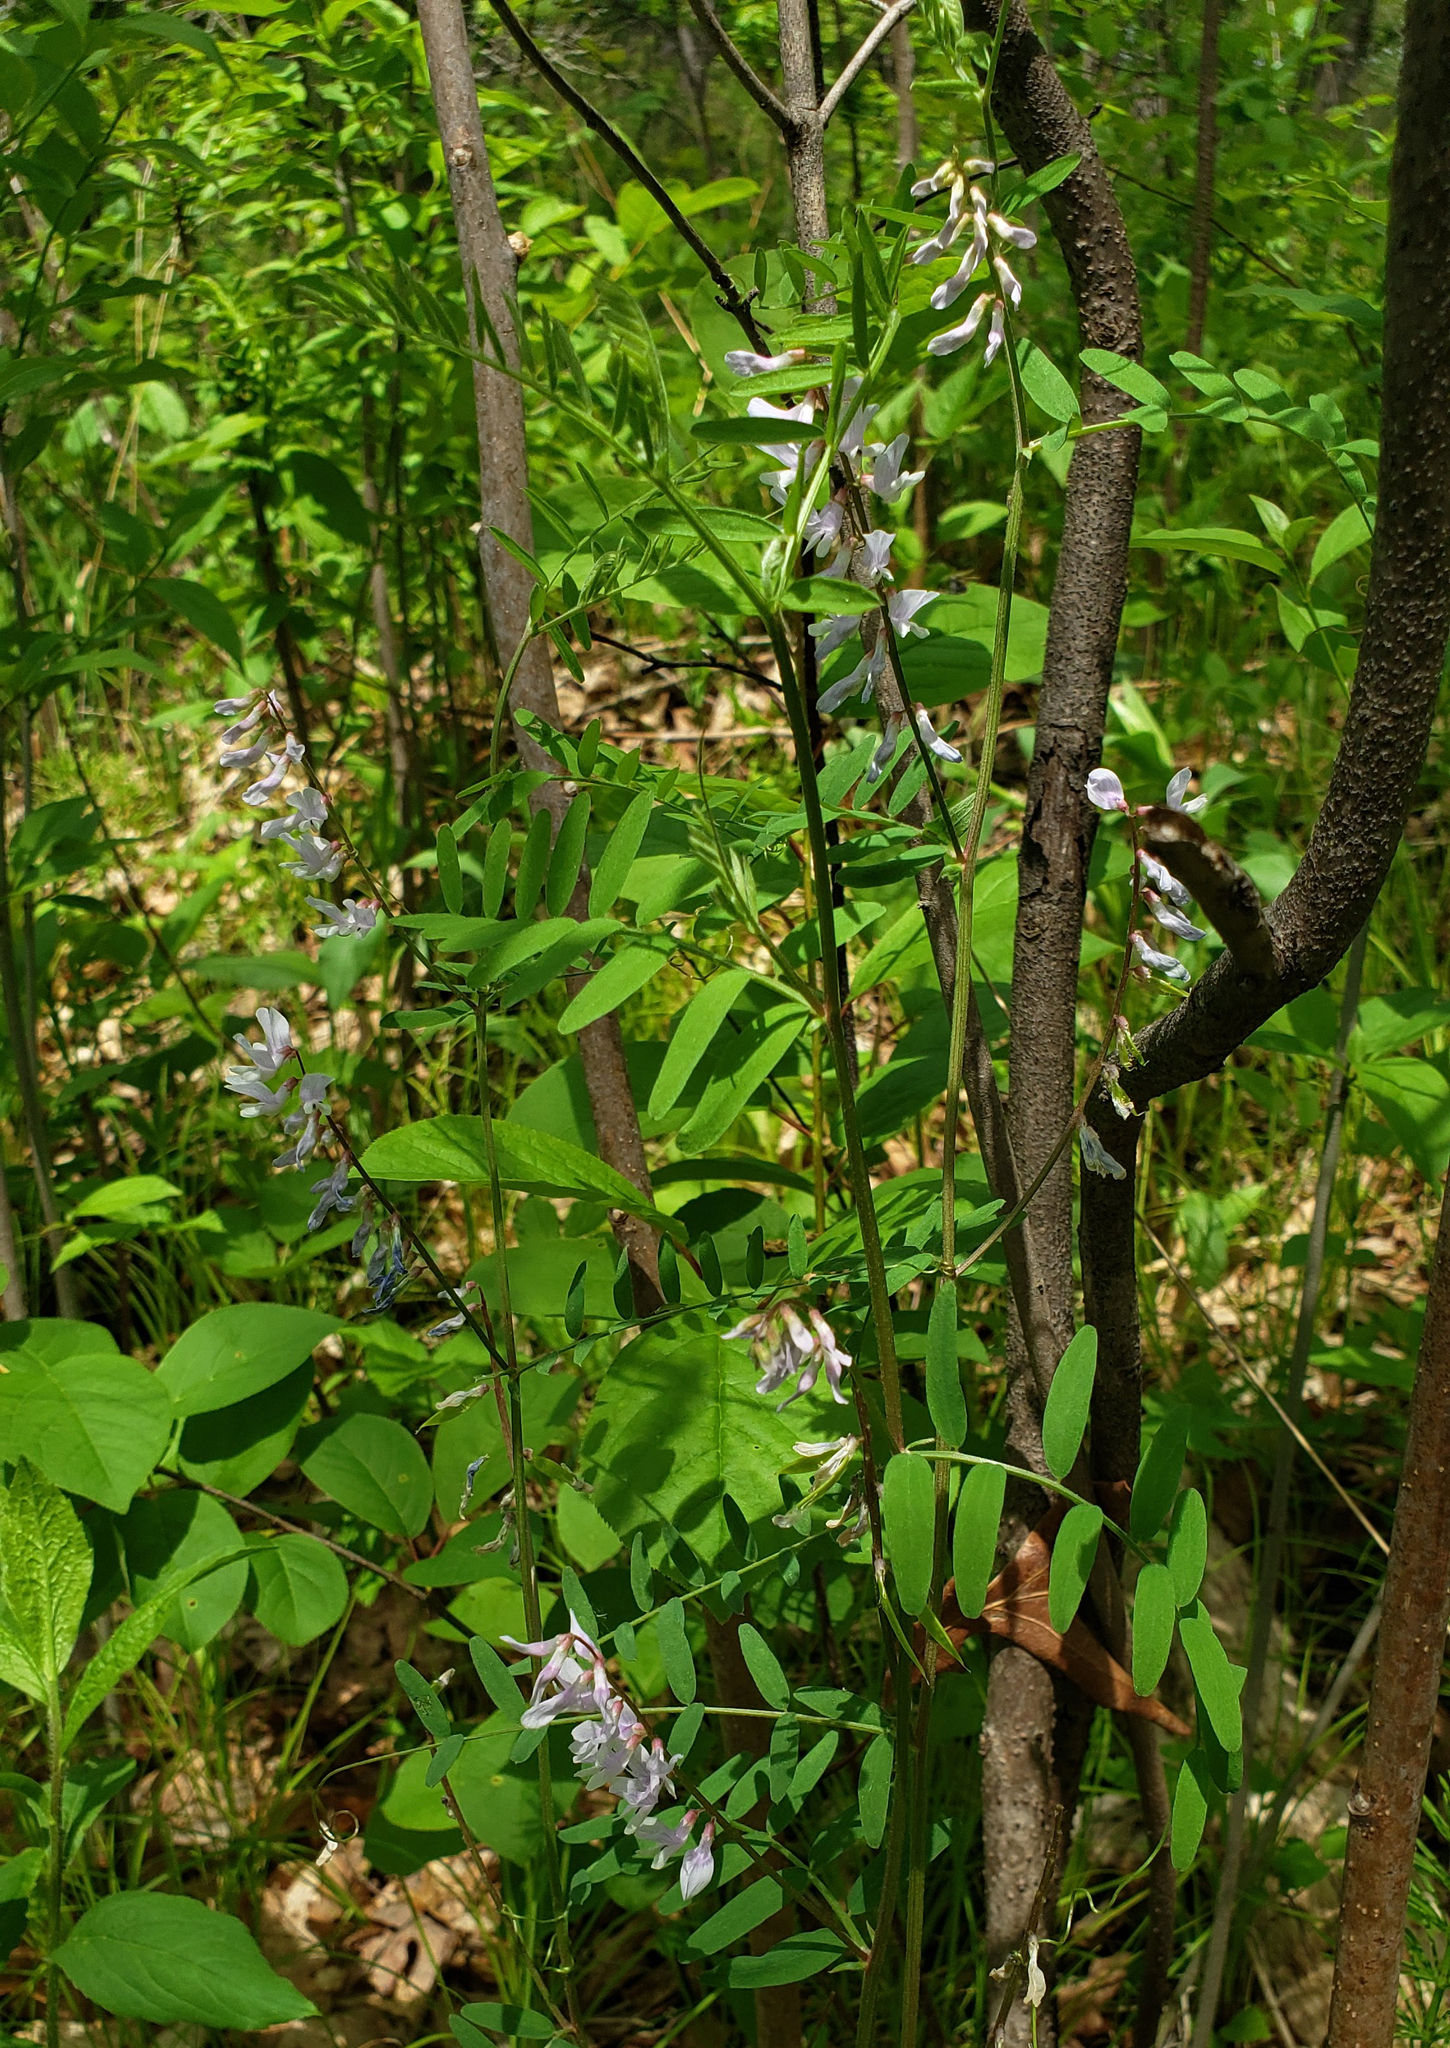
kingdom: Plantae
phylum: Tracheophyta
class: Magnoliopsida
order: Fabales
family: Fabaceae
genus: Vicia
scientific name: Vicia caroliniana
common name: Carolina vetch
